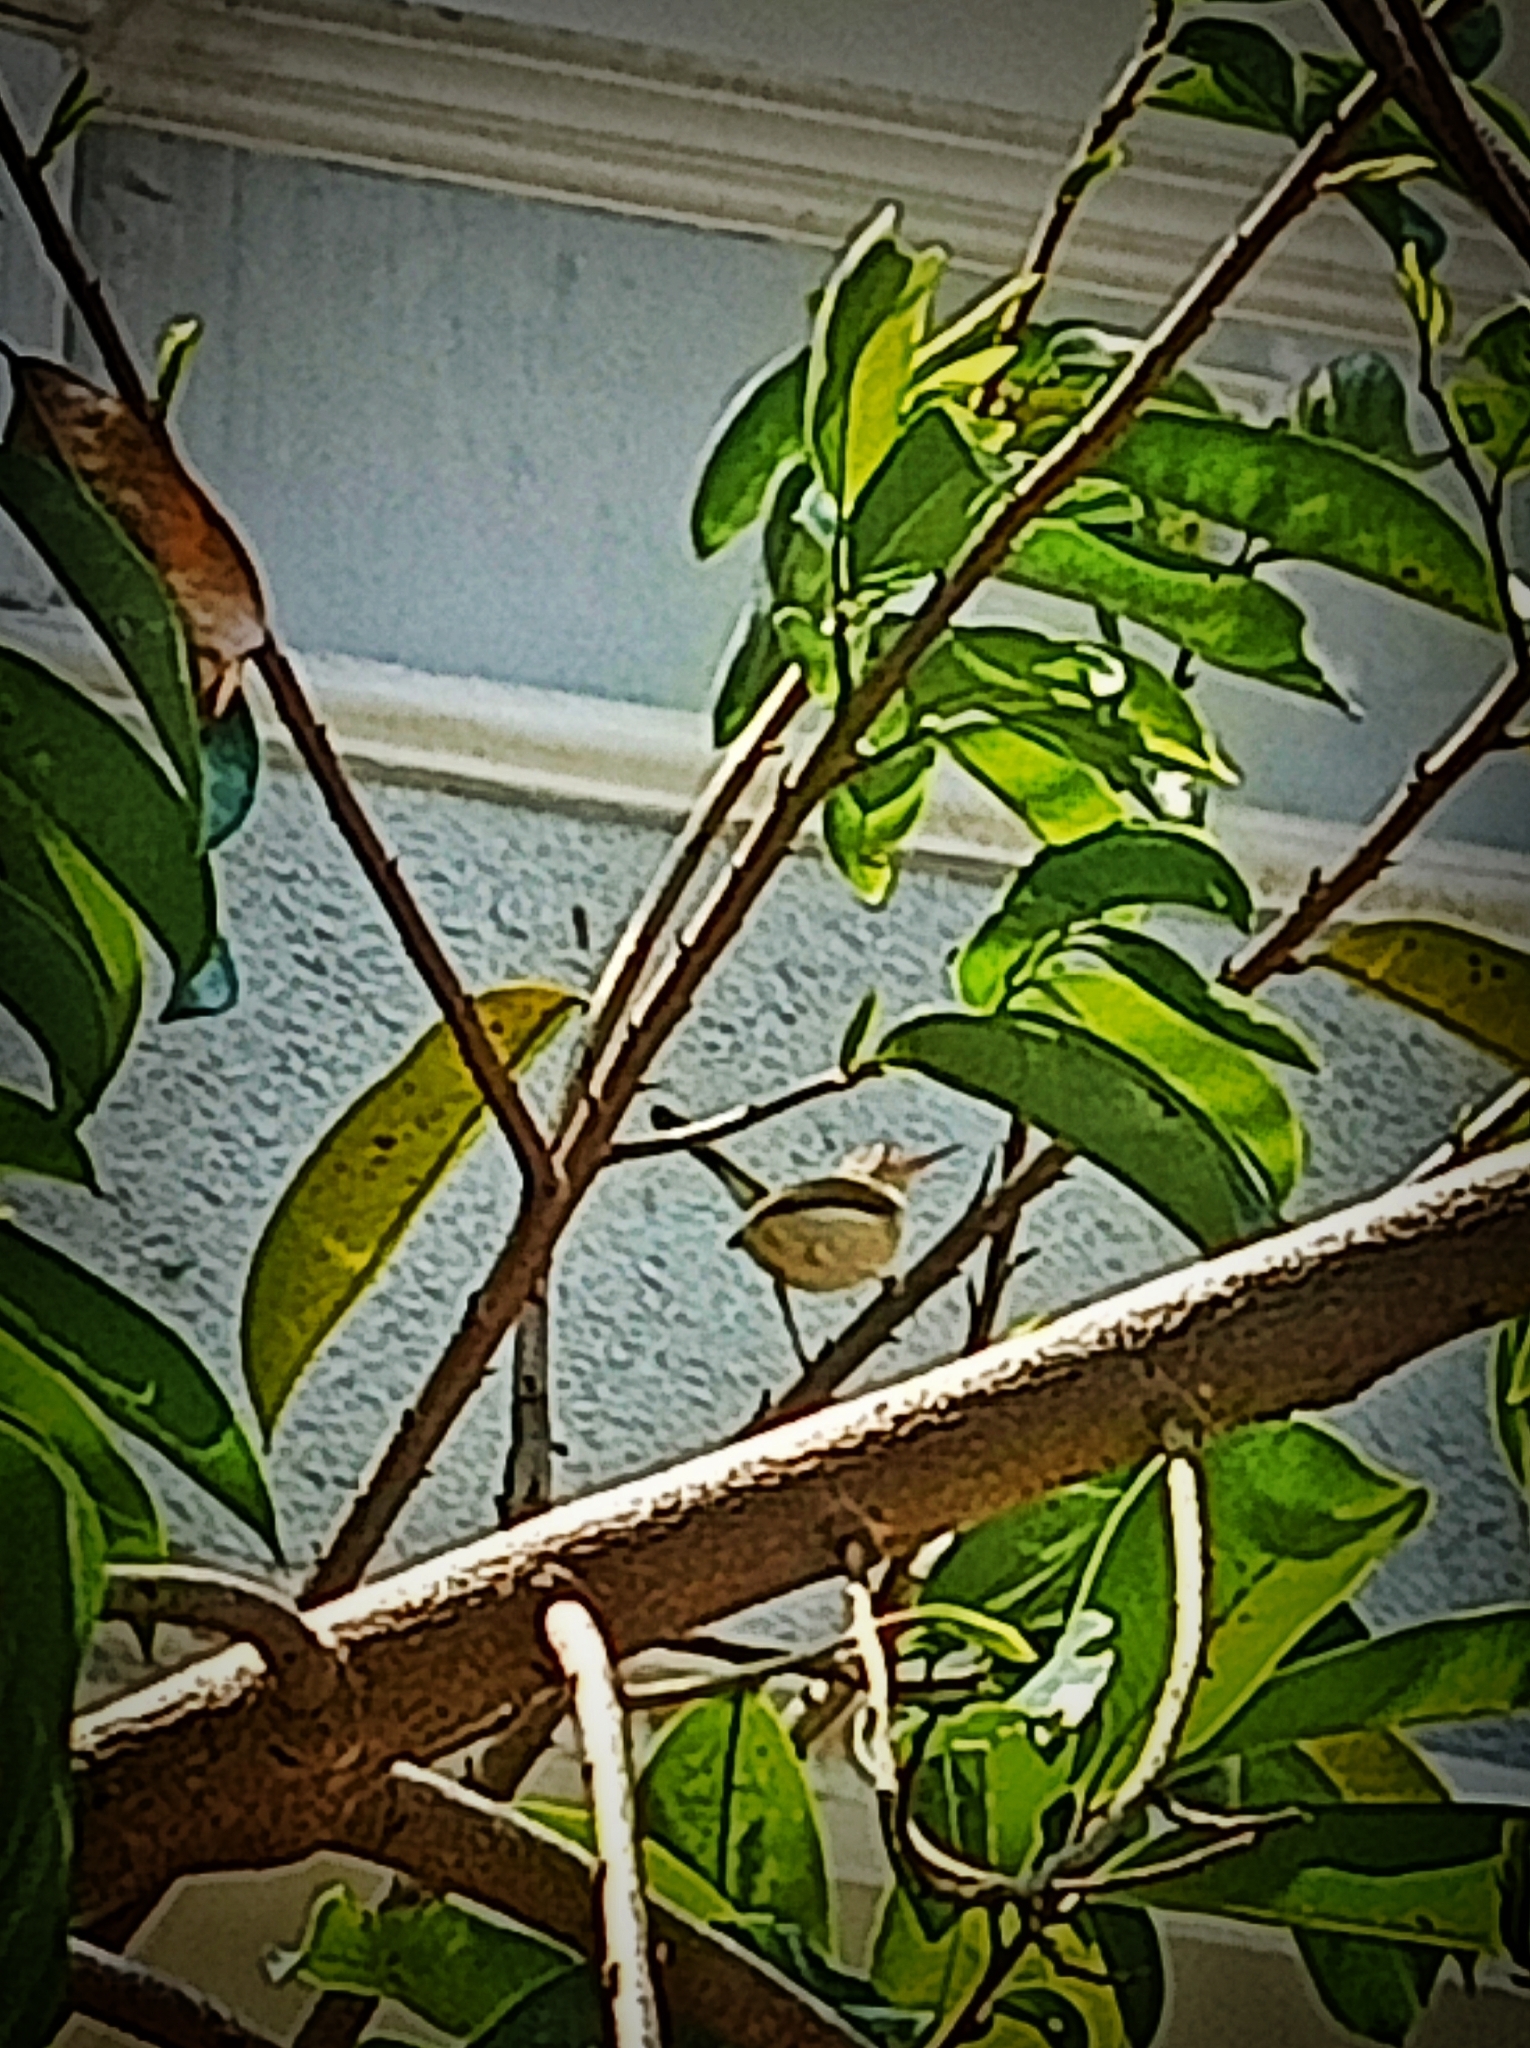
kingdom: Animalia
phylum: Chordata
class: Aves
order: Passeriformes
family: Cisticolidae
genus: Orthotomus
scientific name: Orthotomus sutorius
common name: Common tailorbird
